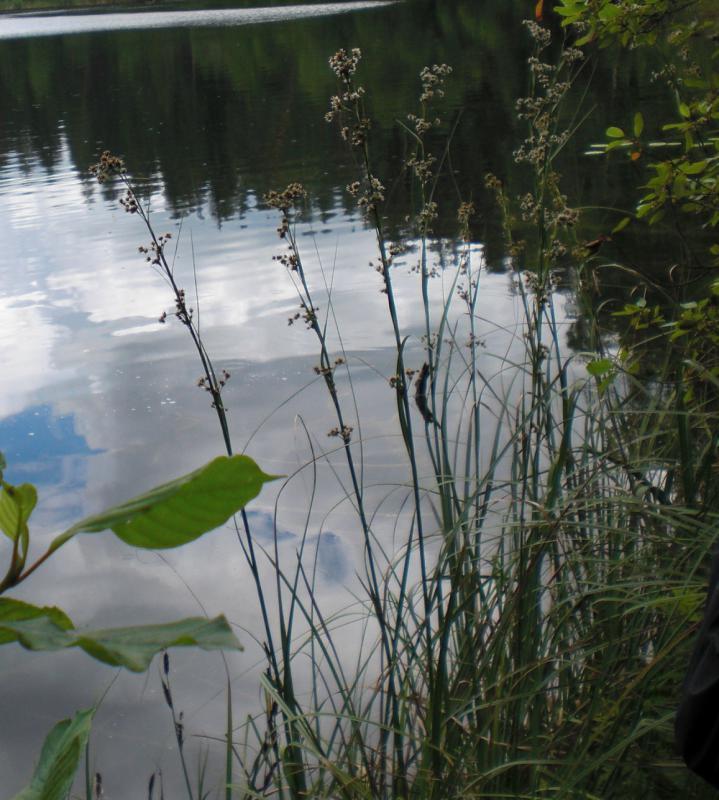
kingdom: Plantae
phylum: Tracheophyta
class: Liliopsida
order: Poales
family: Cyperaceae
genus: Cladium
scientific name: Cladium mariscus
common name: Great fen-sedge
